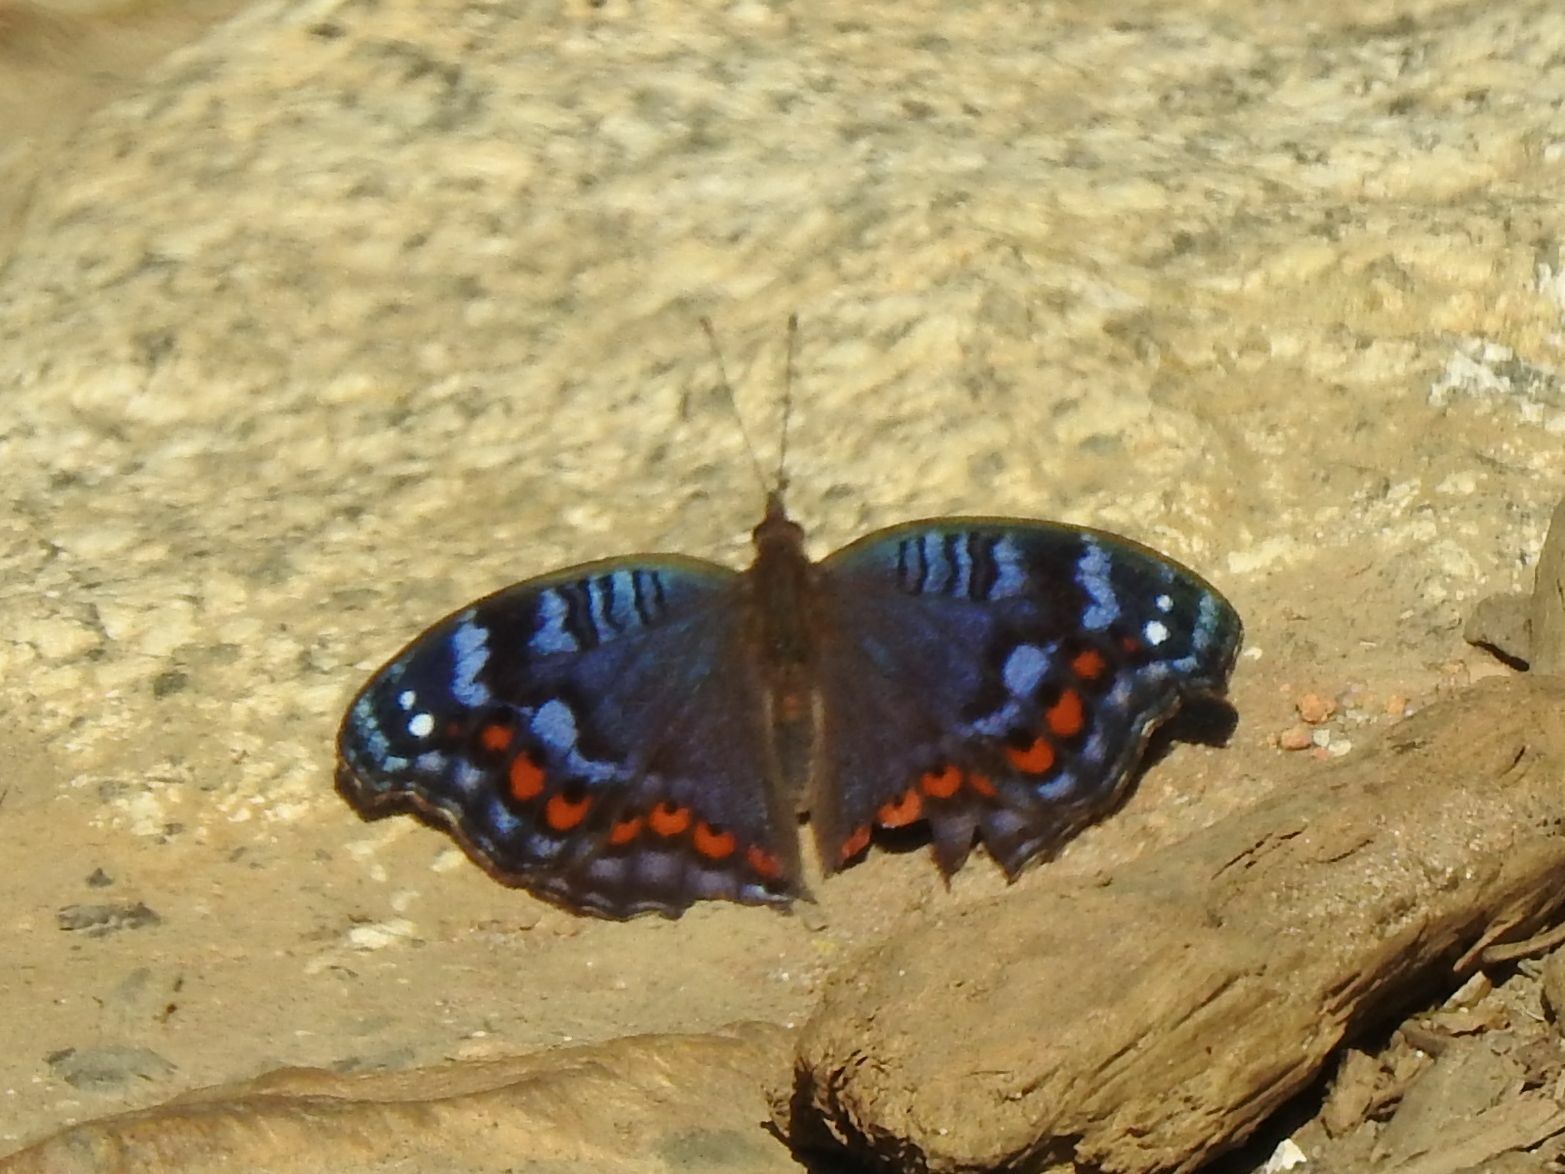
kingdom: Animalia
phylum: Arthropoda
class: Insecta
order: Lepidoptera
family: Nymphalidae
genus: Precis
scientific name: Precis octavia
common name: Gaudy commodore
